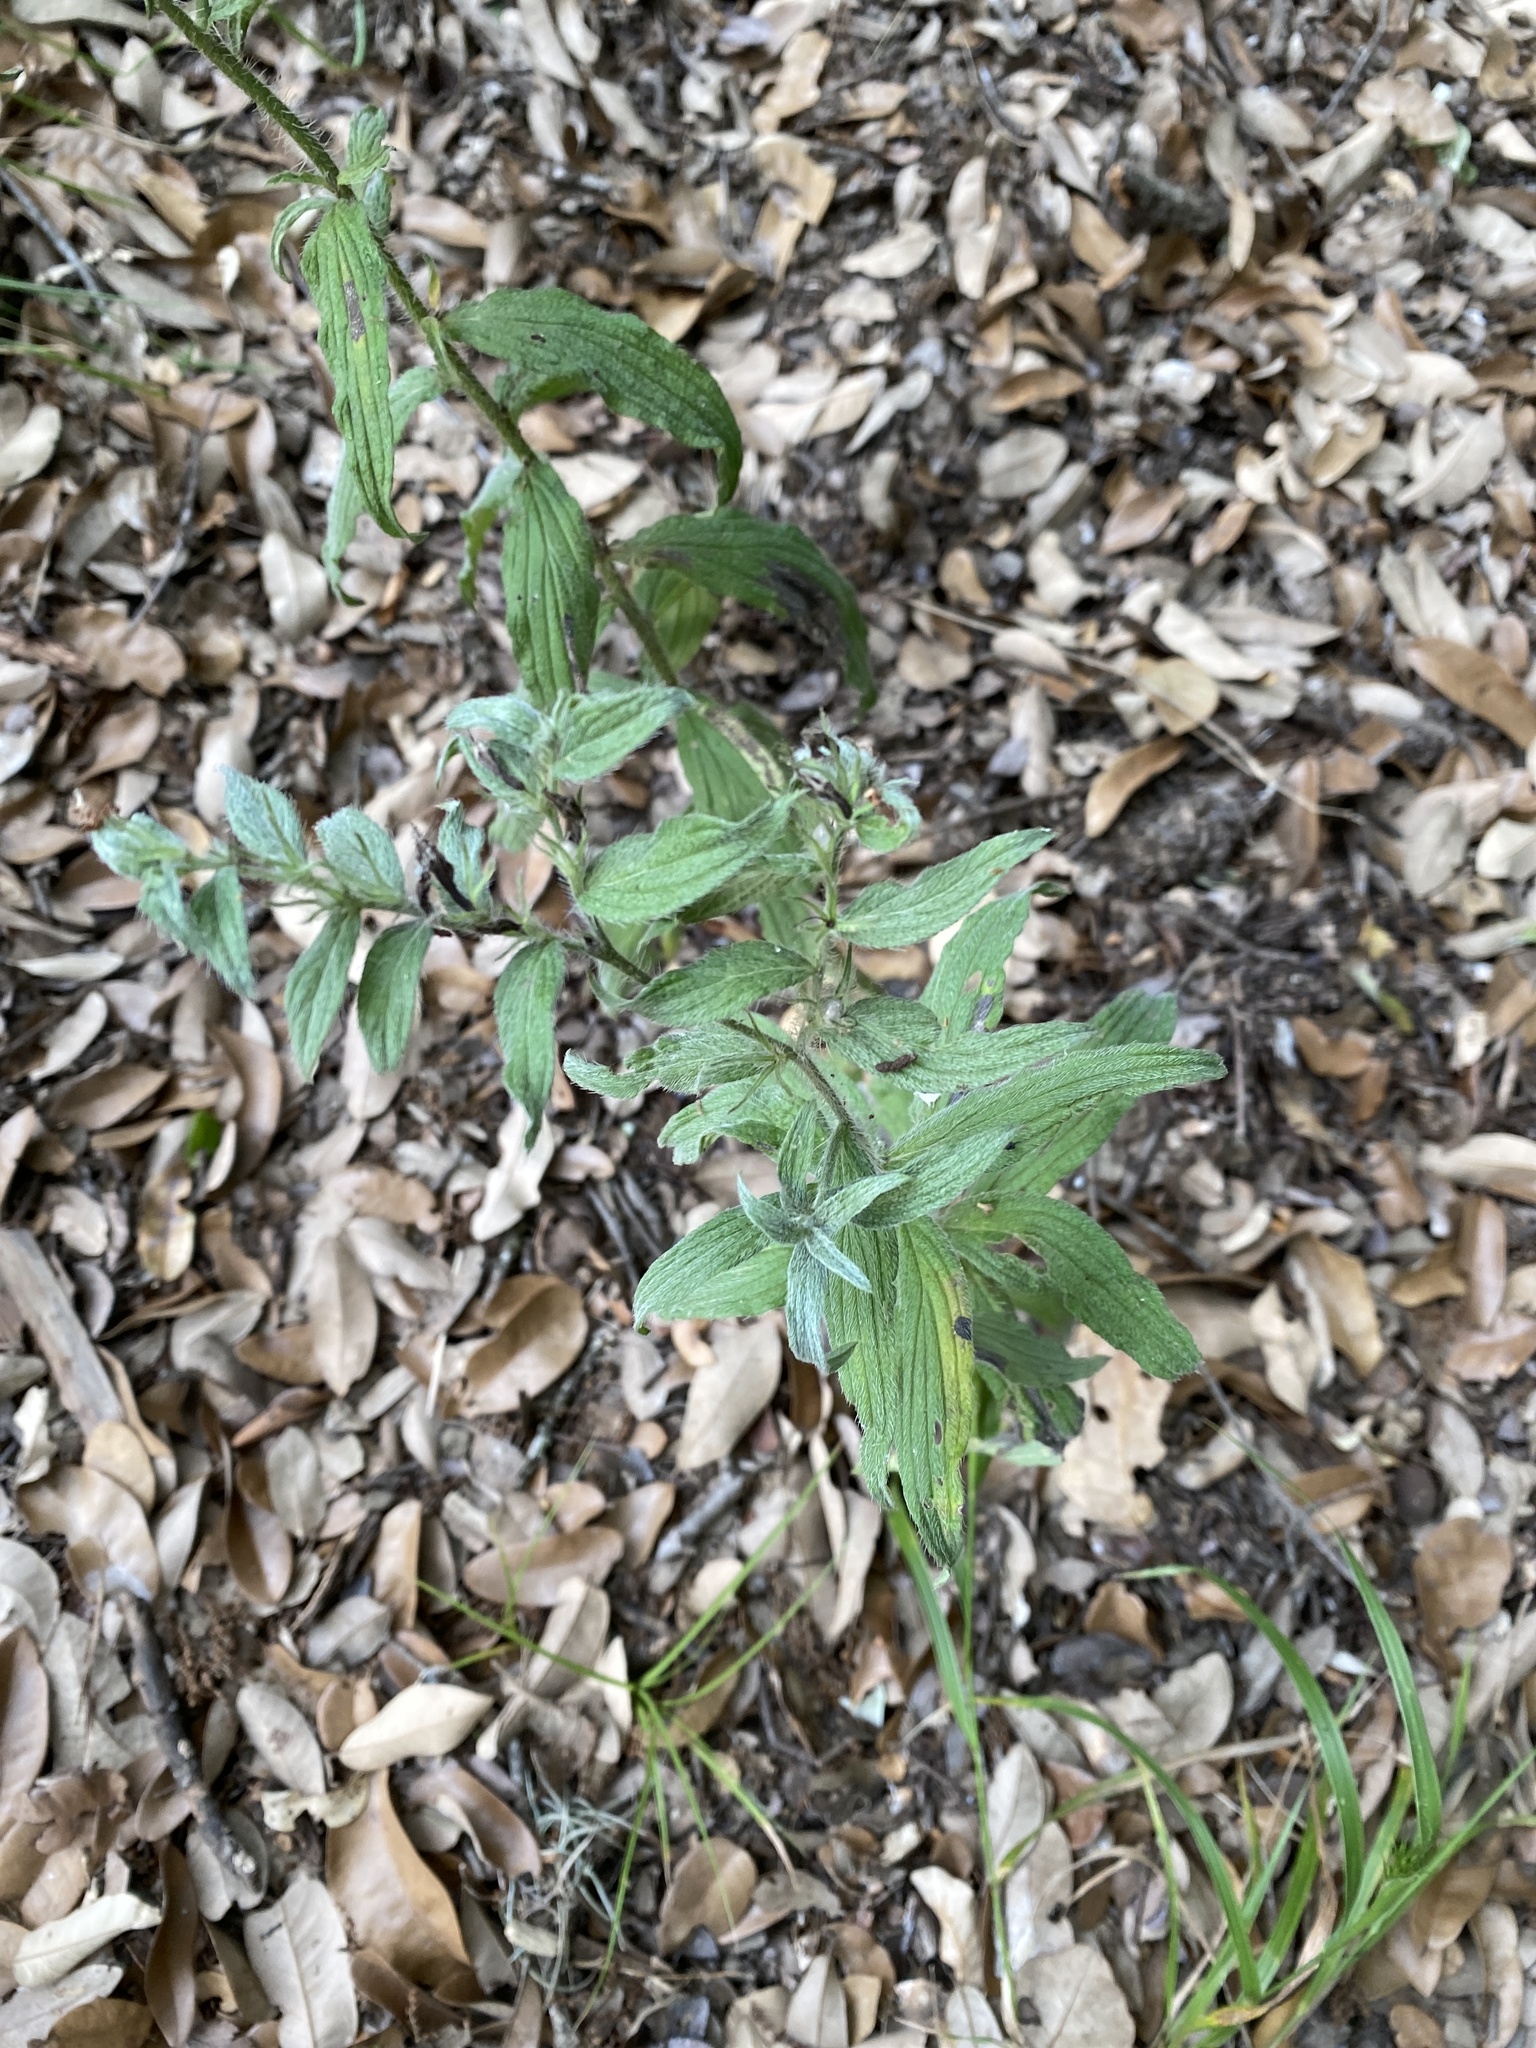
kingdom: Plantae
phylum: Tracheophyta
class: Magnoliopsida
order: Boraginales
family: Boraginaceae
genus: Lithospermum
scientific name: Lithospermum caroliniense
